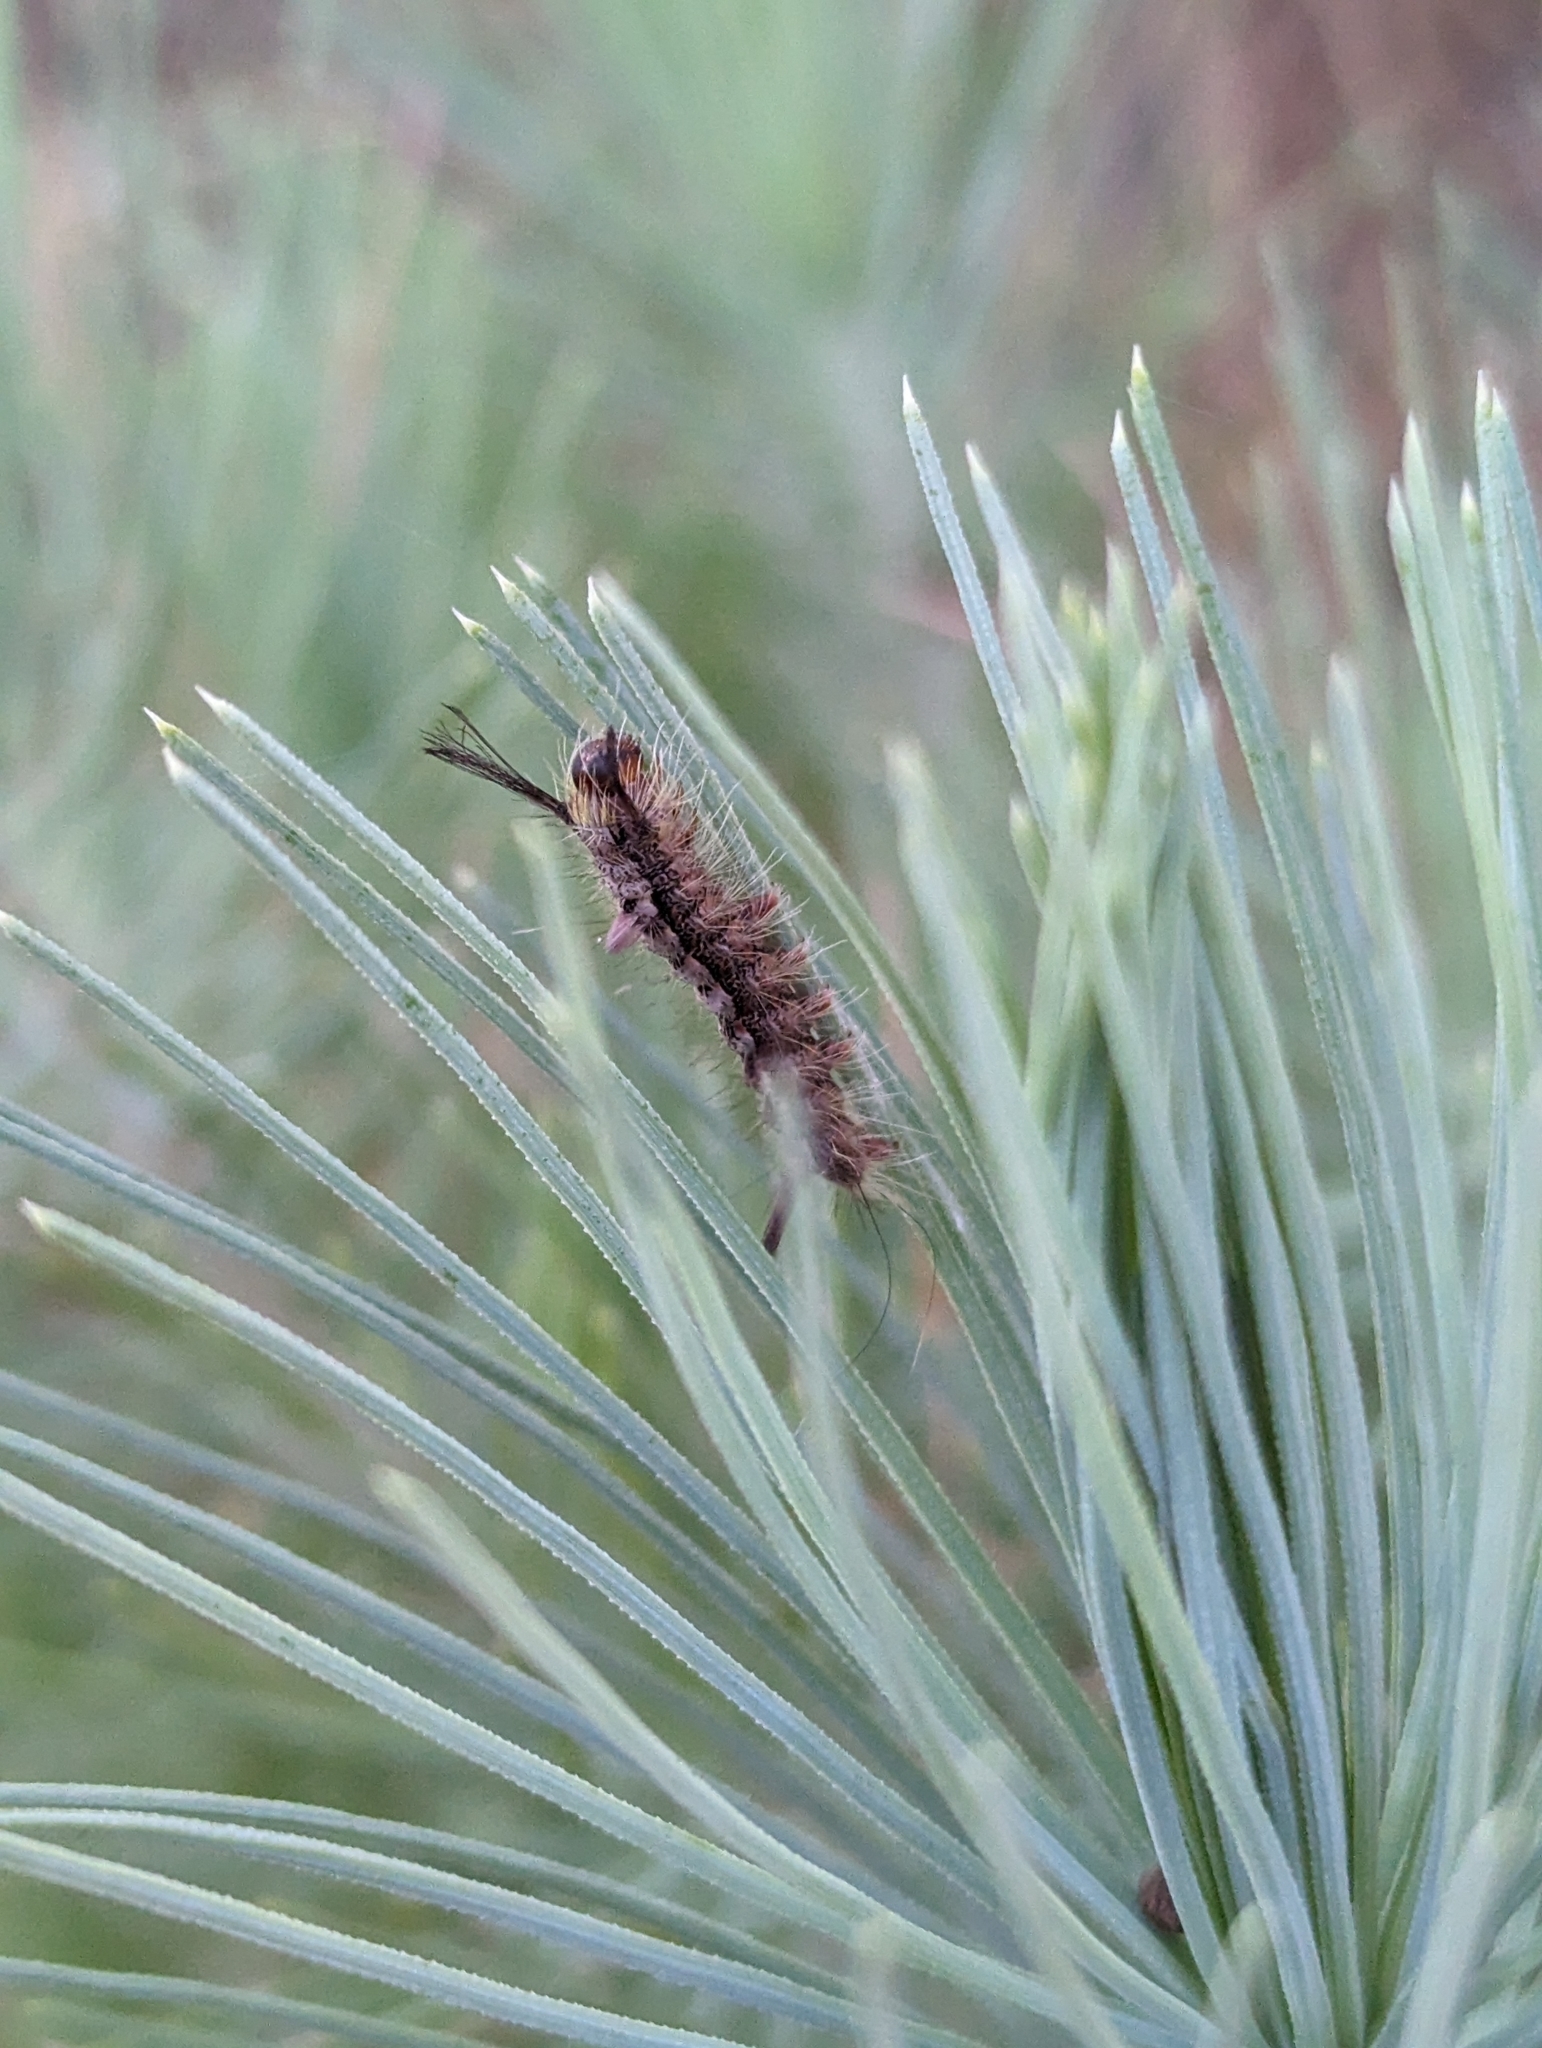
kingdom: Animalia
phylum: Arthropoda
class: Insecta
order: Lepidoptera
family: Erebidae
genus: Calliteara
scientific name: Calliteara
